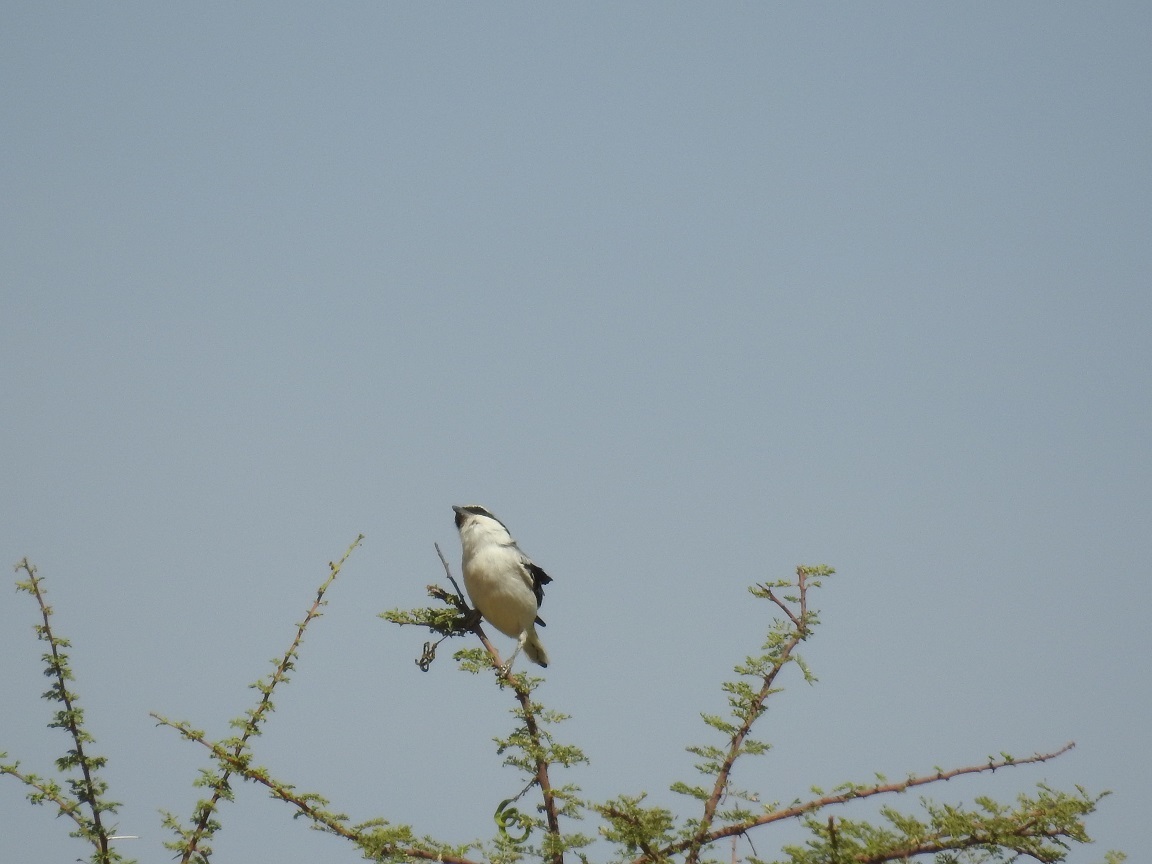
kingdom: Animalia
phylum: Chordata
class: Aves
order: Passeriformes
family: Laniidae
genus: Lanius
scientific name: Lanius excubitor
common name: Great grey shrike
